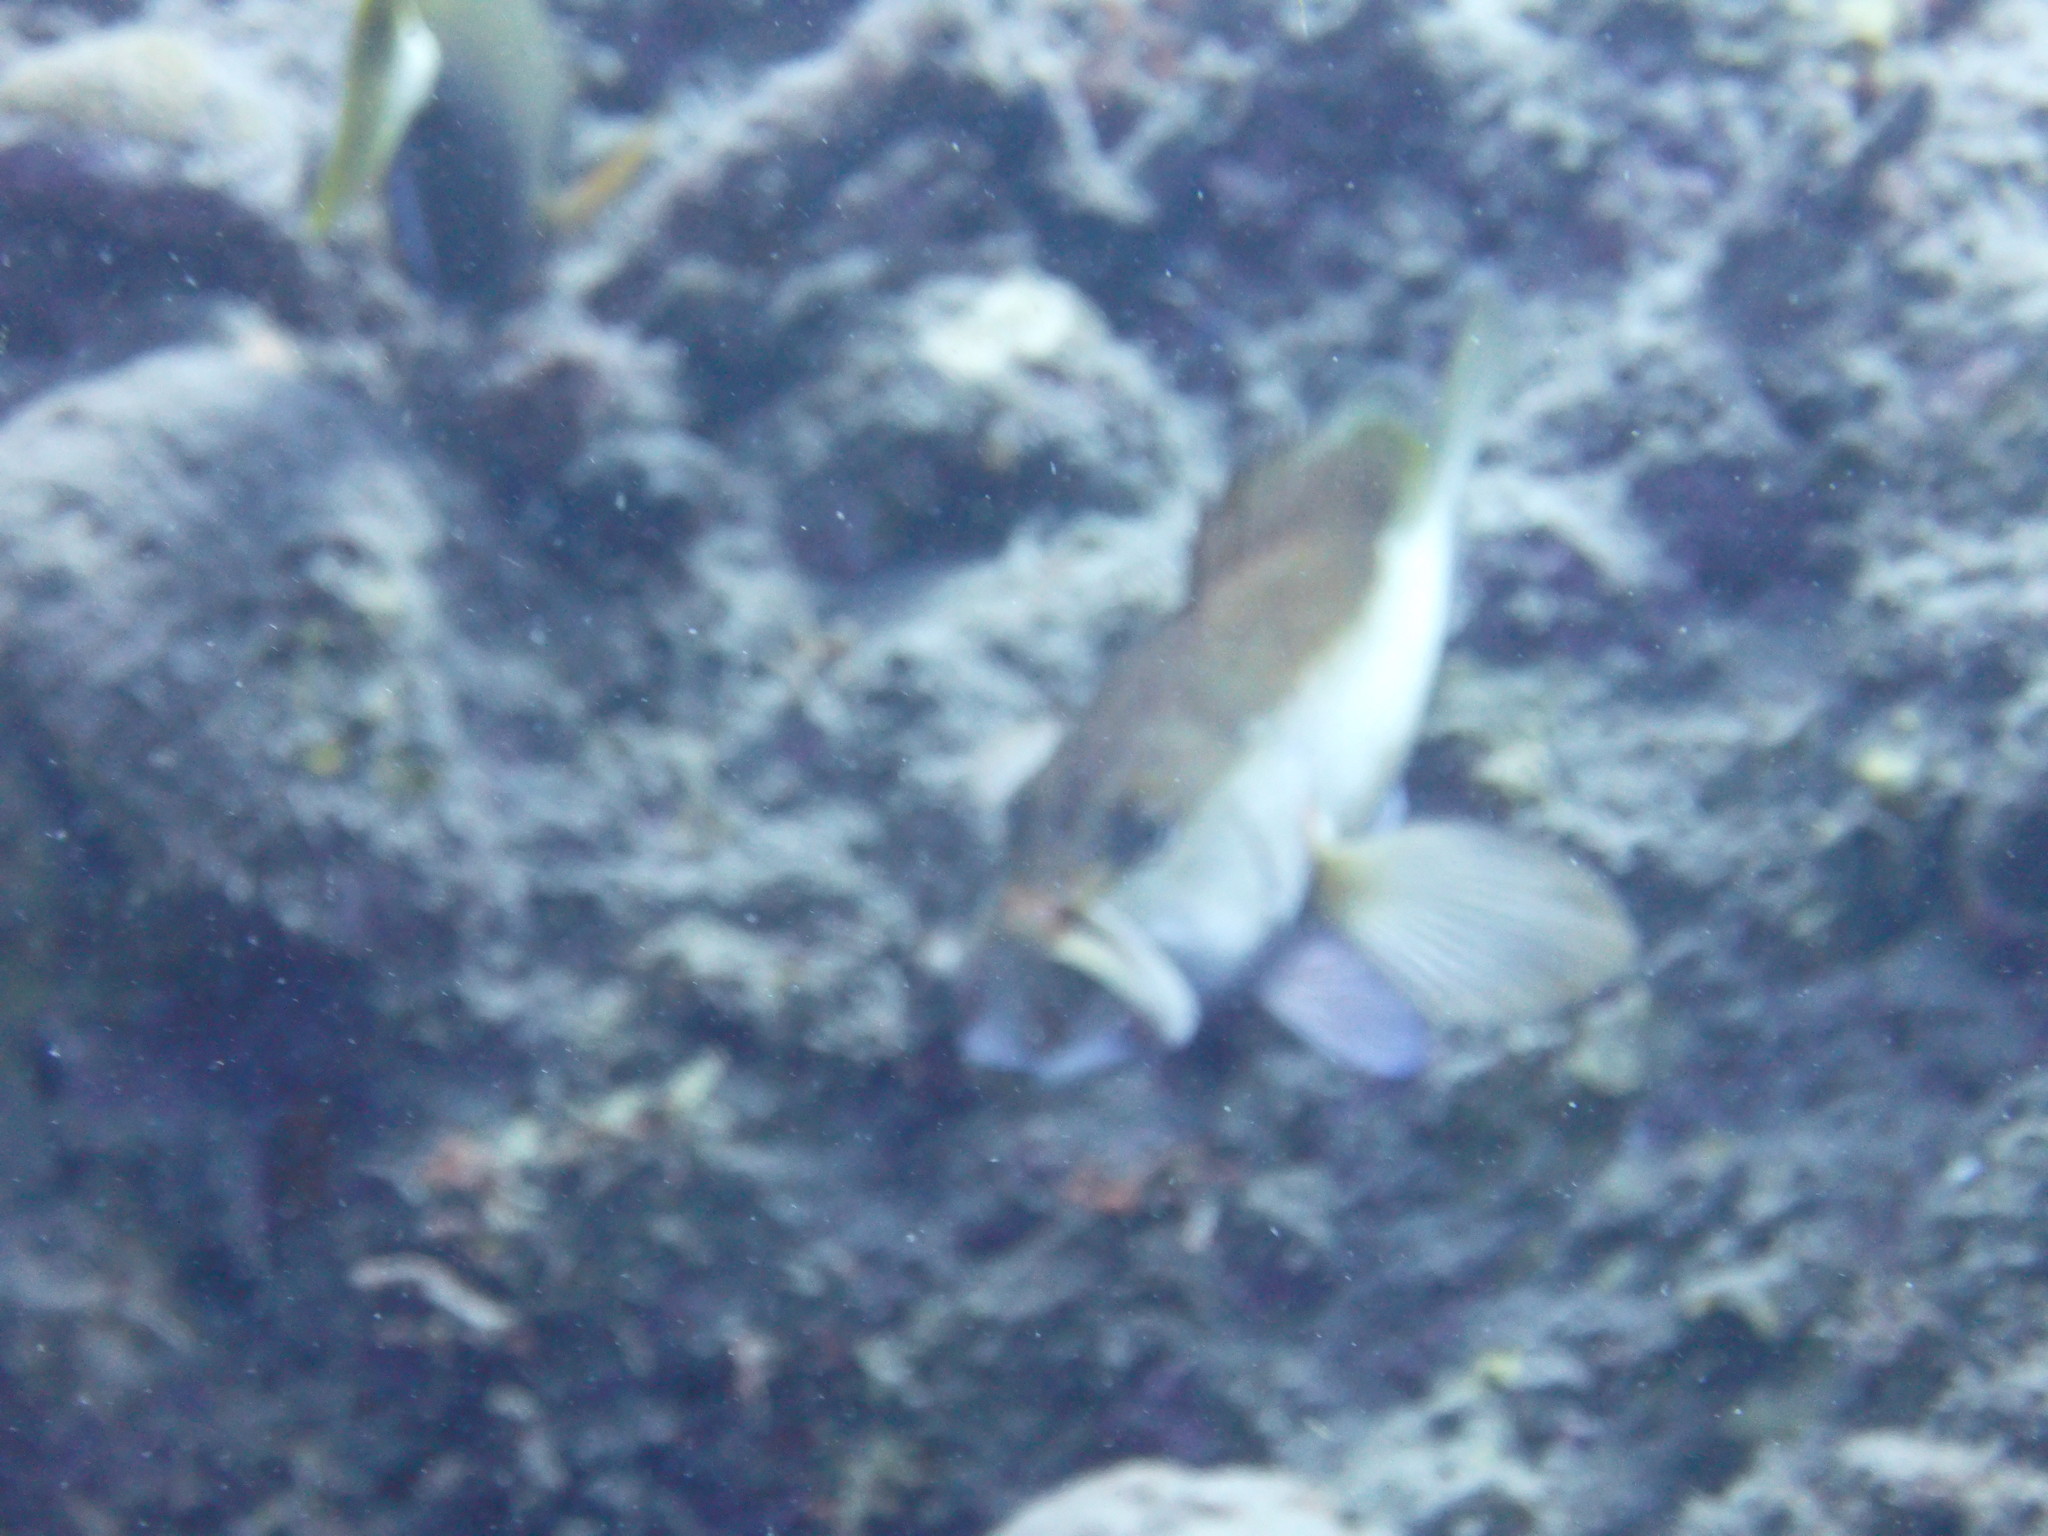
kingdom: Animalia
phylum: Chordata
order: Perciformes
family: Serranidae
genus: Cephalopholis
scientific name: Cephalopholis fulva
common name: Butterfish
